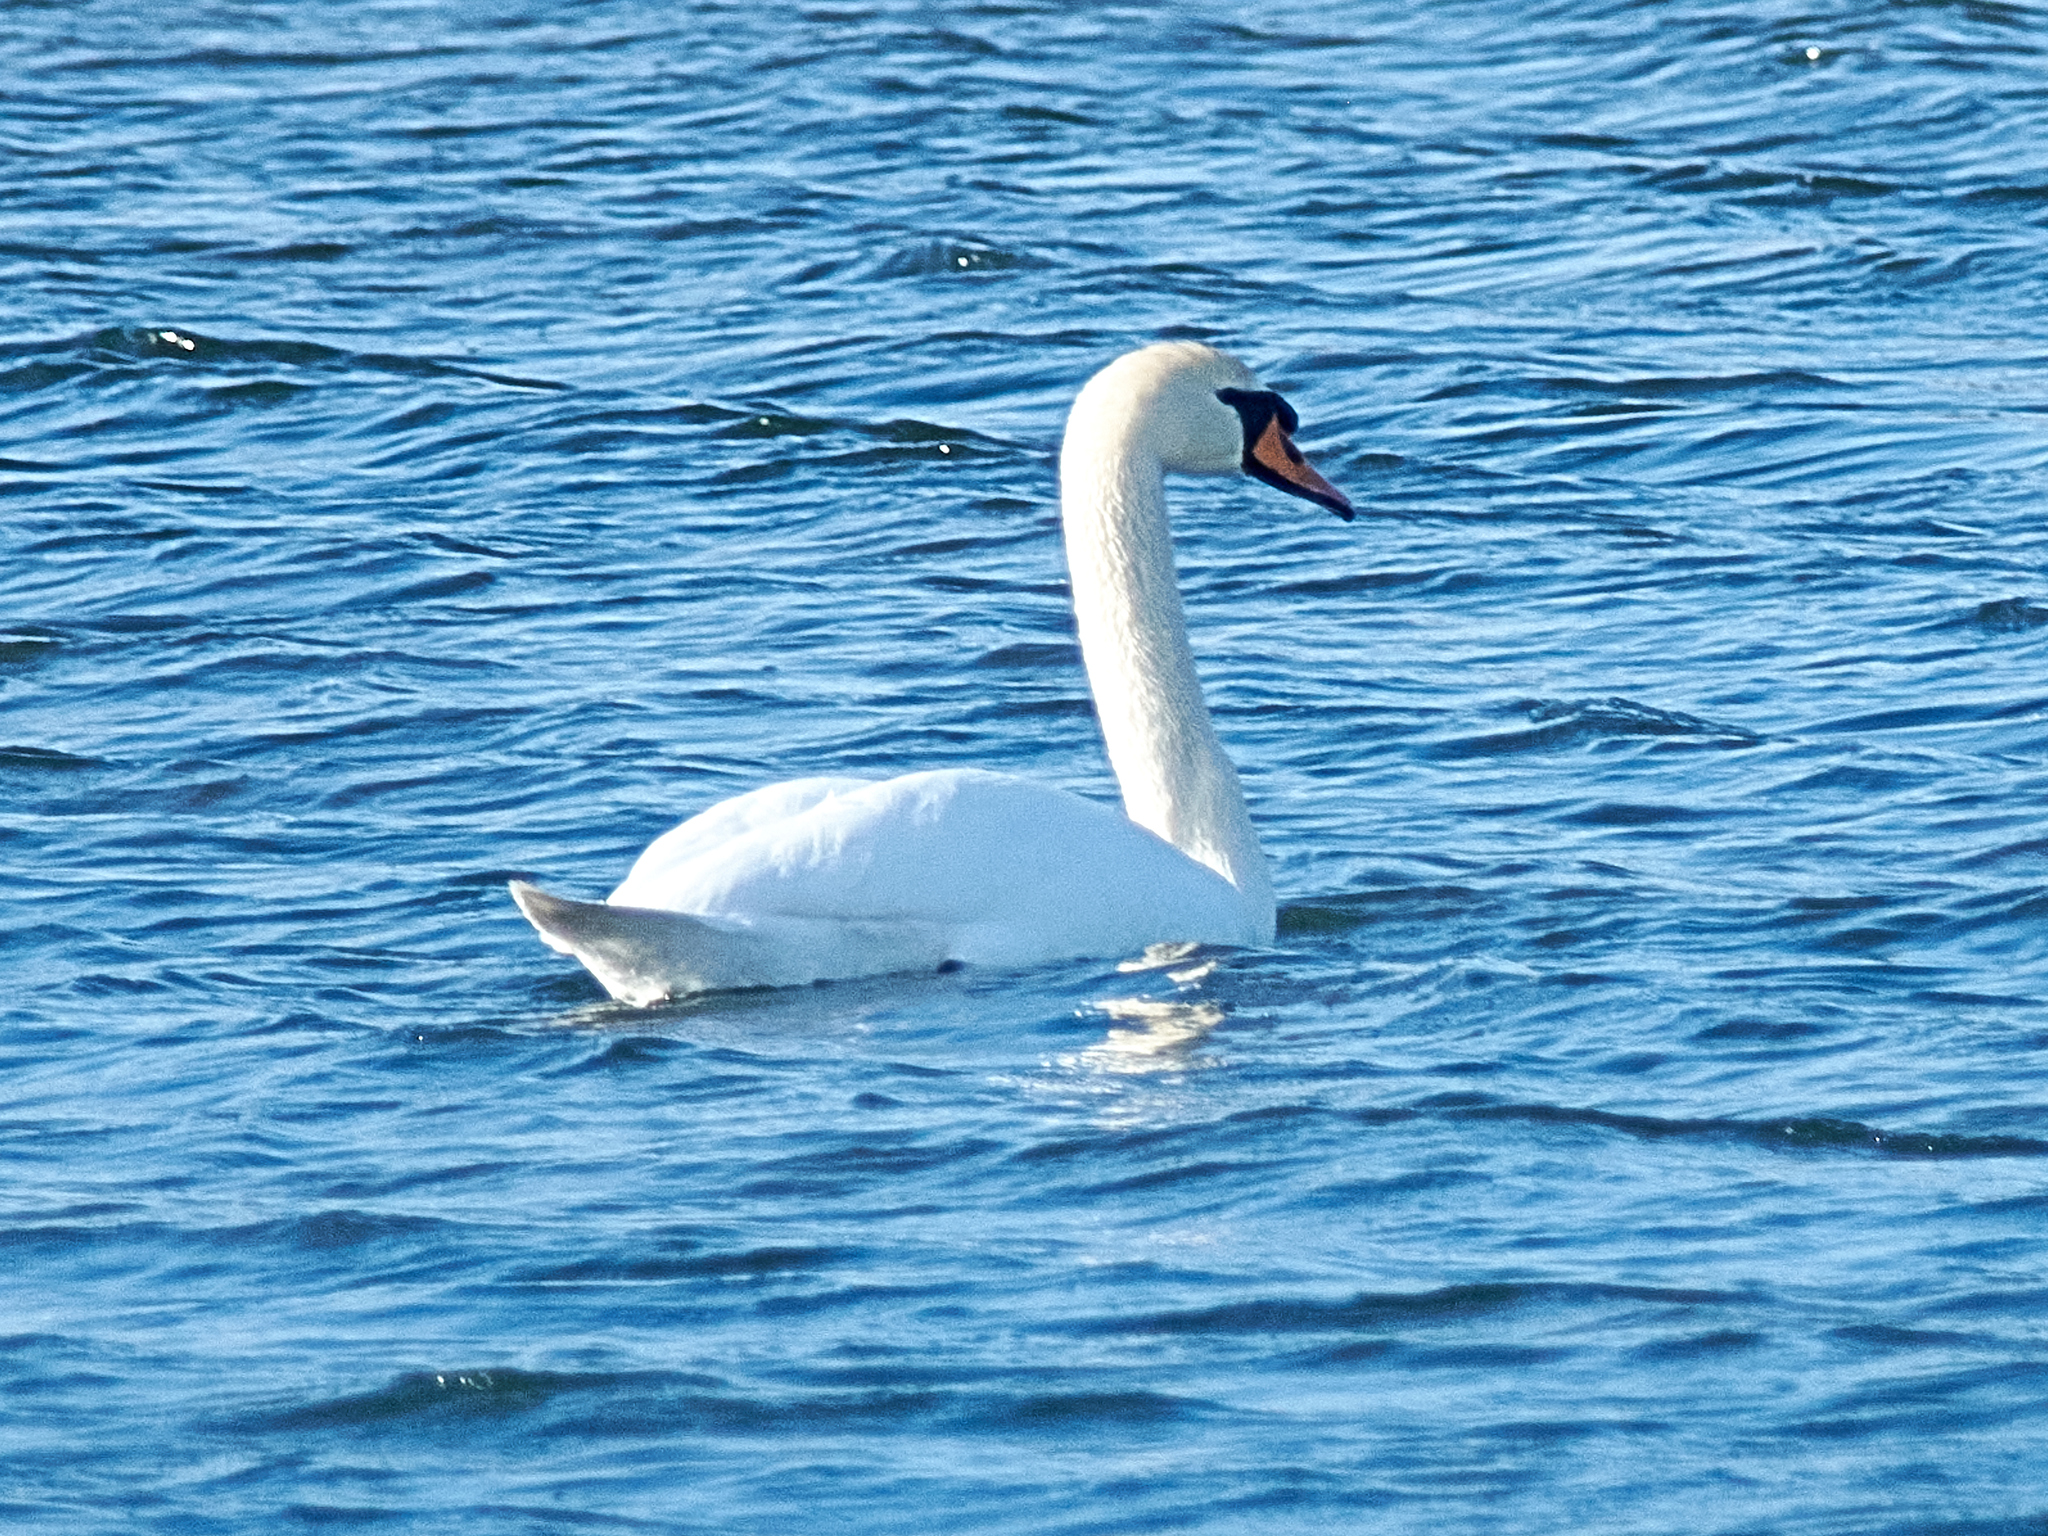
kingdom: Animalia
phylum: Chordata
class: Aves
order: Anseriformes
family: Anatidae
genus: Cygnus
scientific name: Cygnus olor
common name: Mute swan
